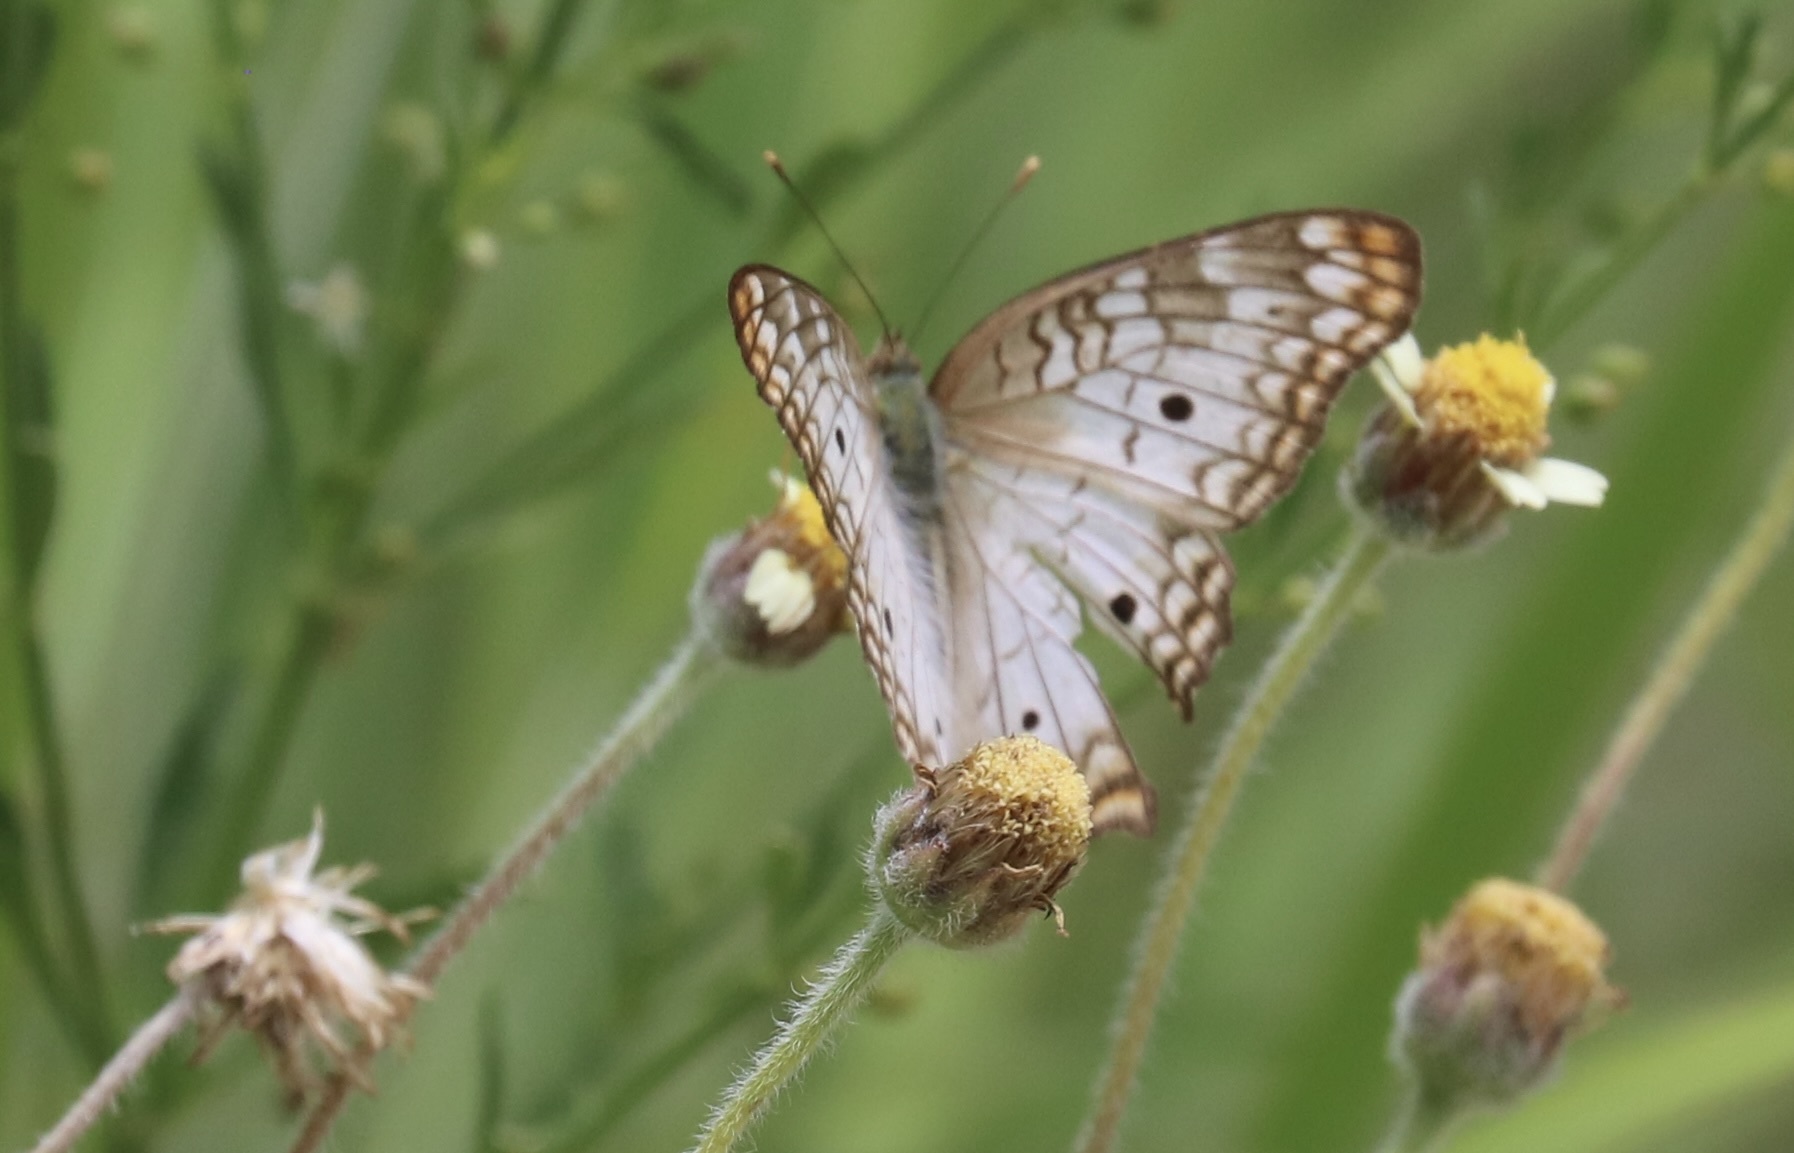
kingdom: Animalia
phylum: Arthropoda
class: Insecta
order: Lepidoptera
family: Nymphalidae
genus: Anartia
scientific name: Anartia jatrophae
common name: White peacock
